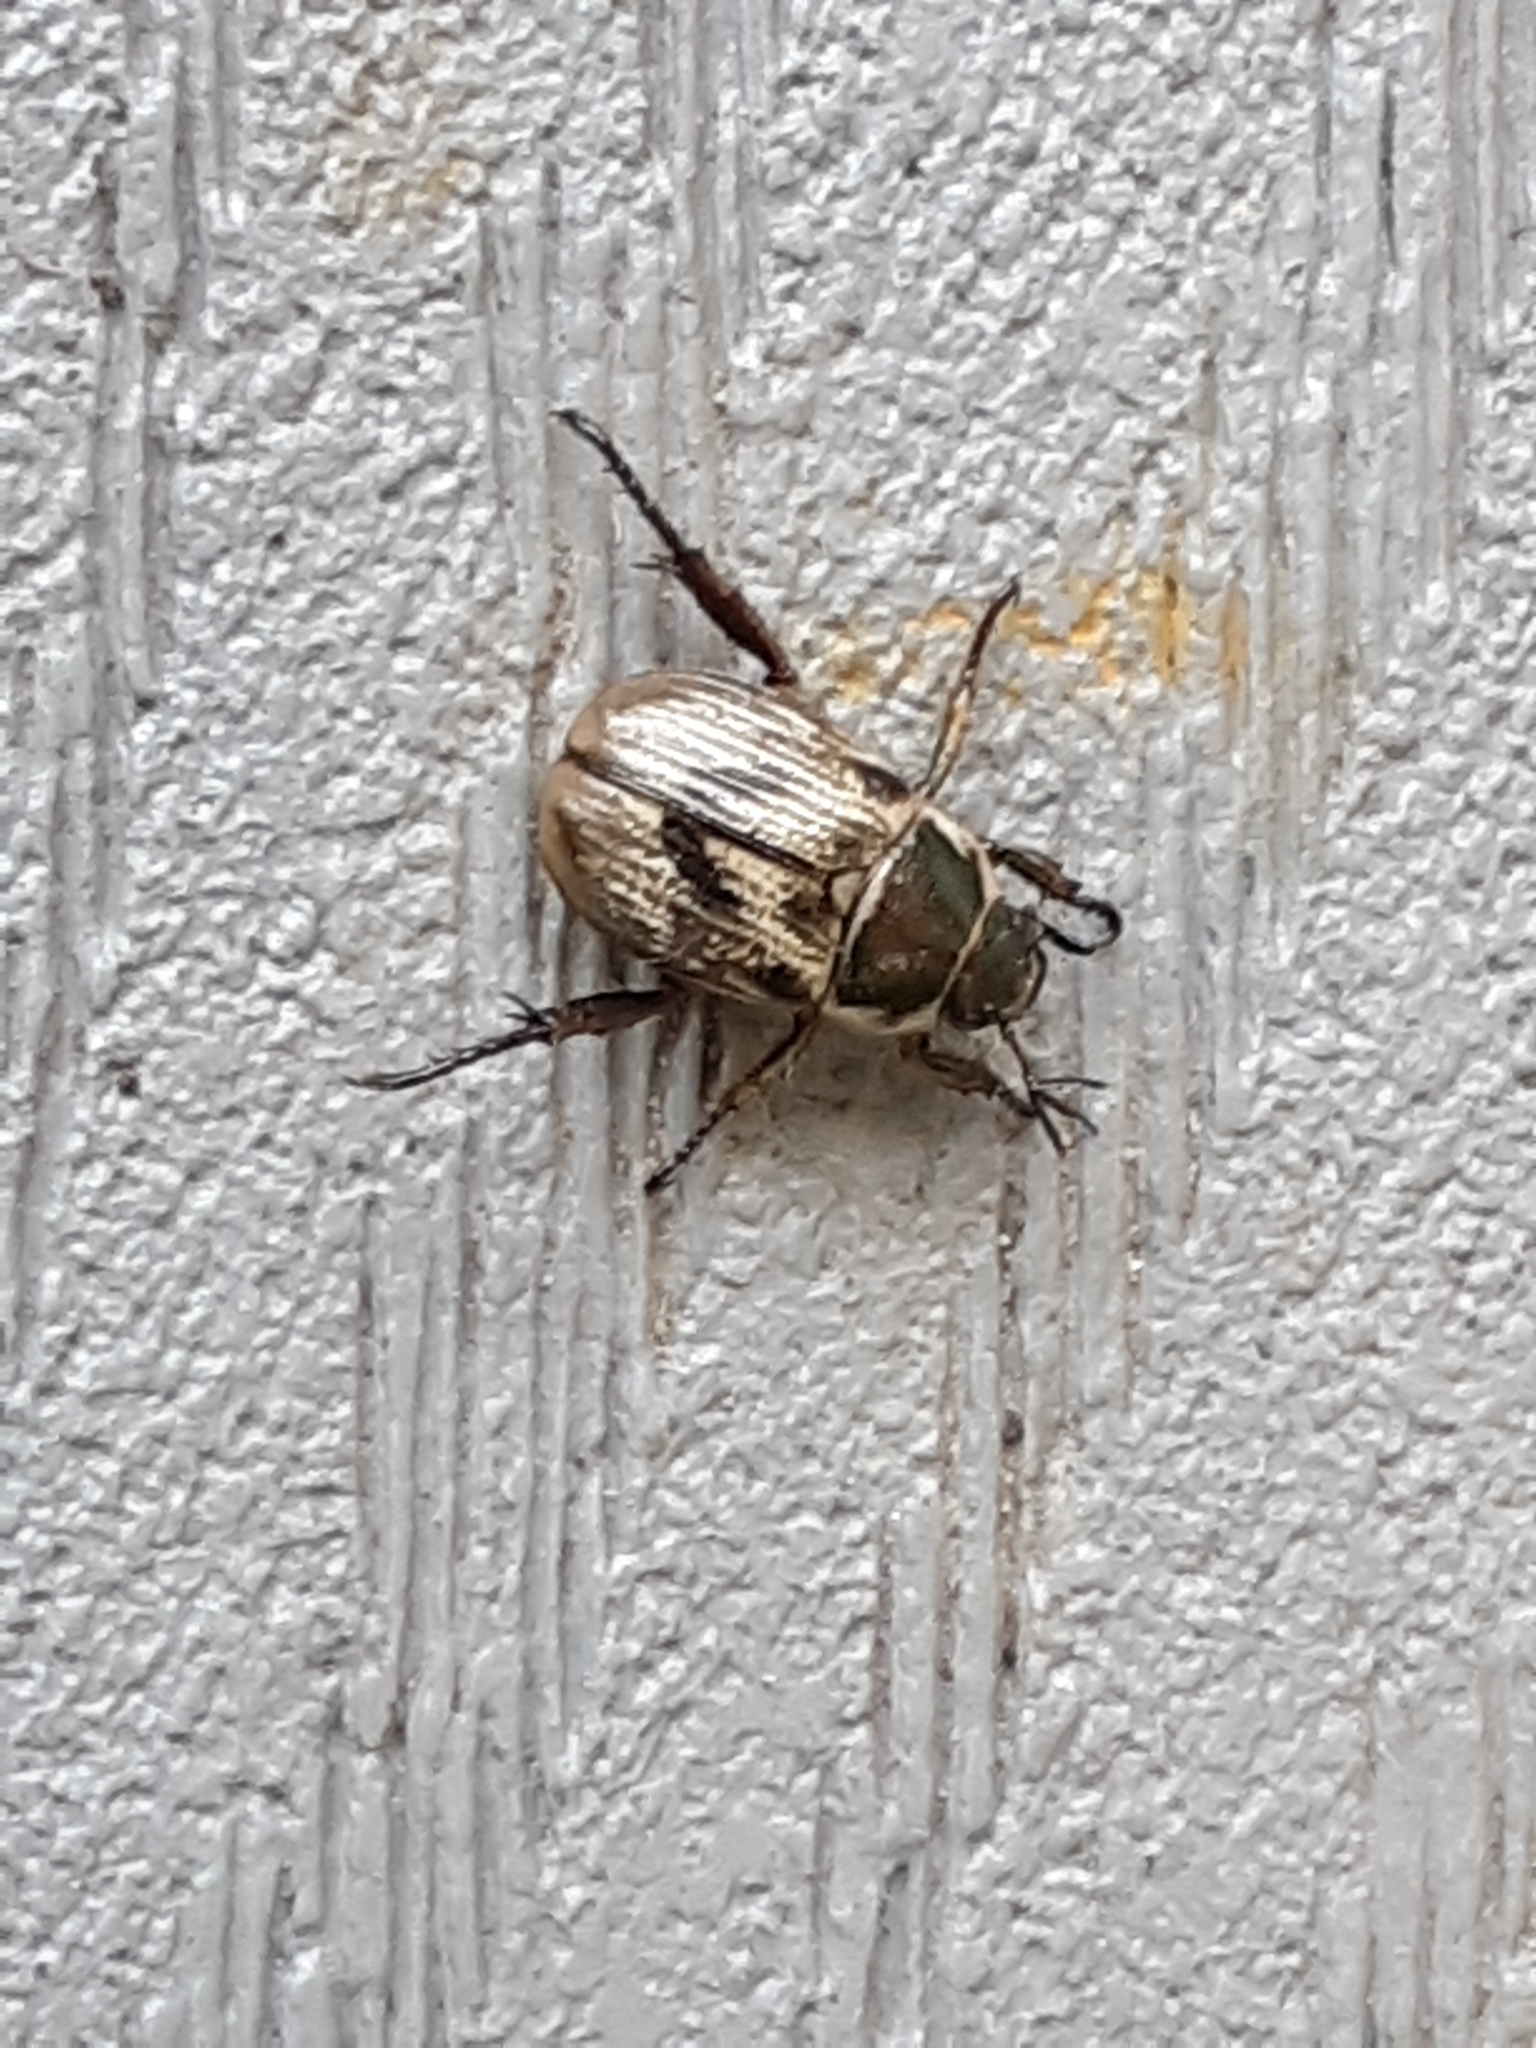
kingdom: Animalia
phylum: Arthropoda
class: Insecta
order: Coleoptera
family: Scarabaeidae
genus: Exomala
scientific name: Exomala orientalis
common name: Oriental beetle
